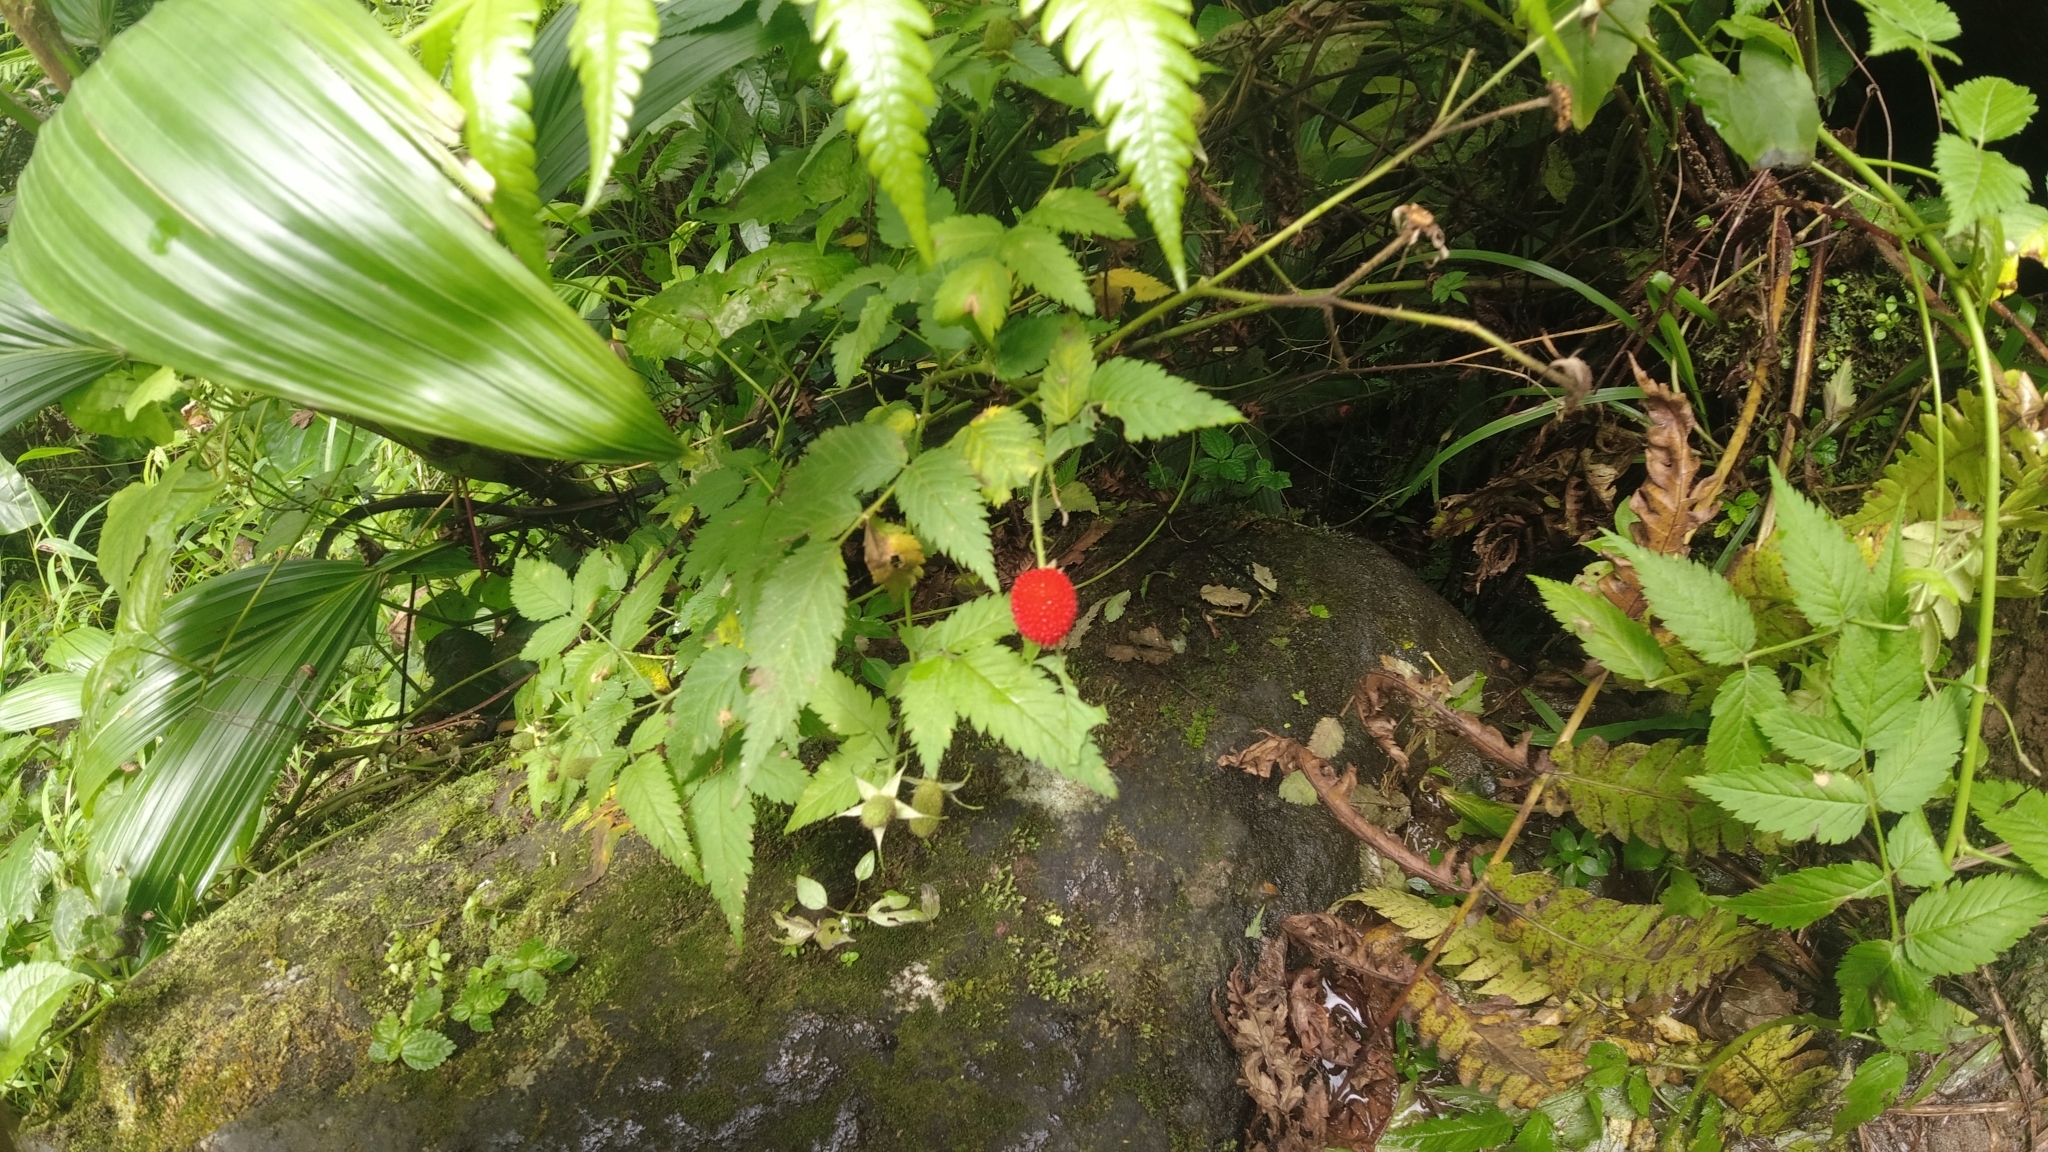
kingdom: Plantae
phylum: Tracheophyta
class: Magnoliopsida
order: Rosales
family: Rosaceae
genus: Rubus
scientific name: Rubus rosifolius
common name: Roseleaf raspberry
